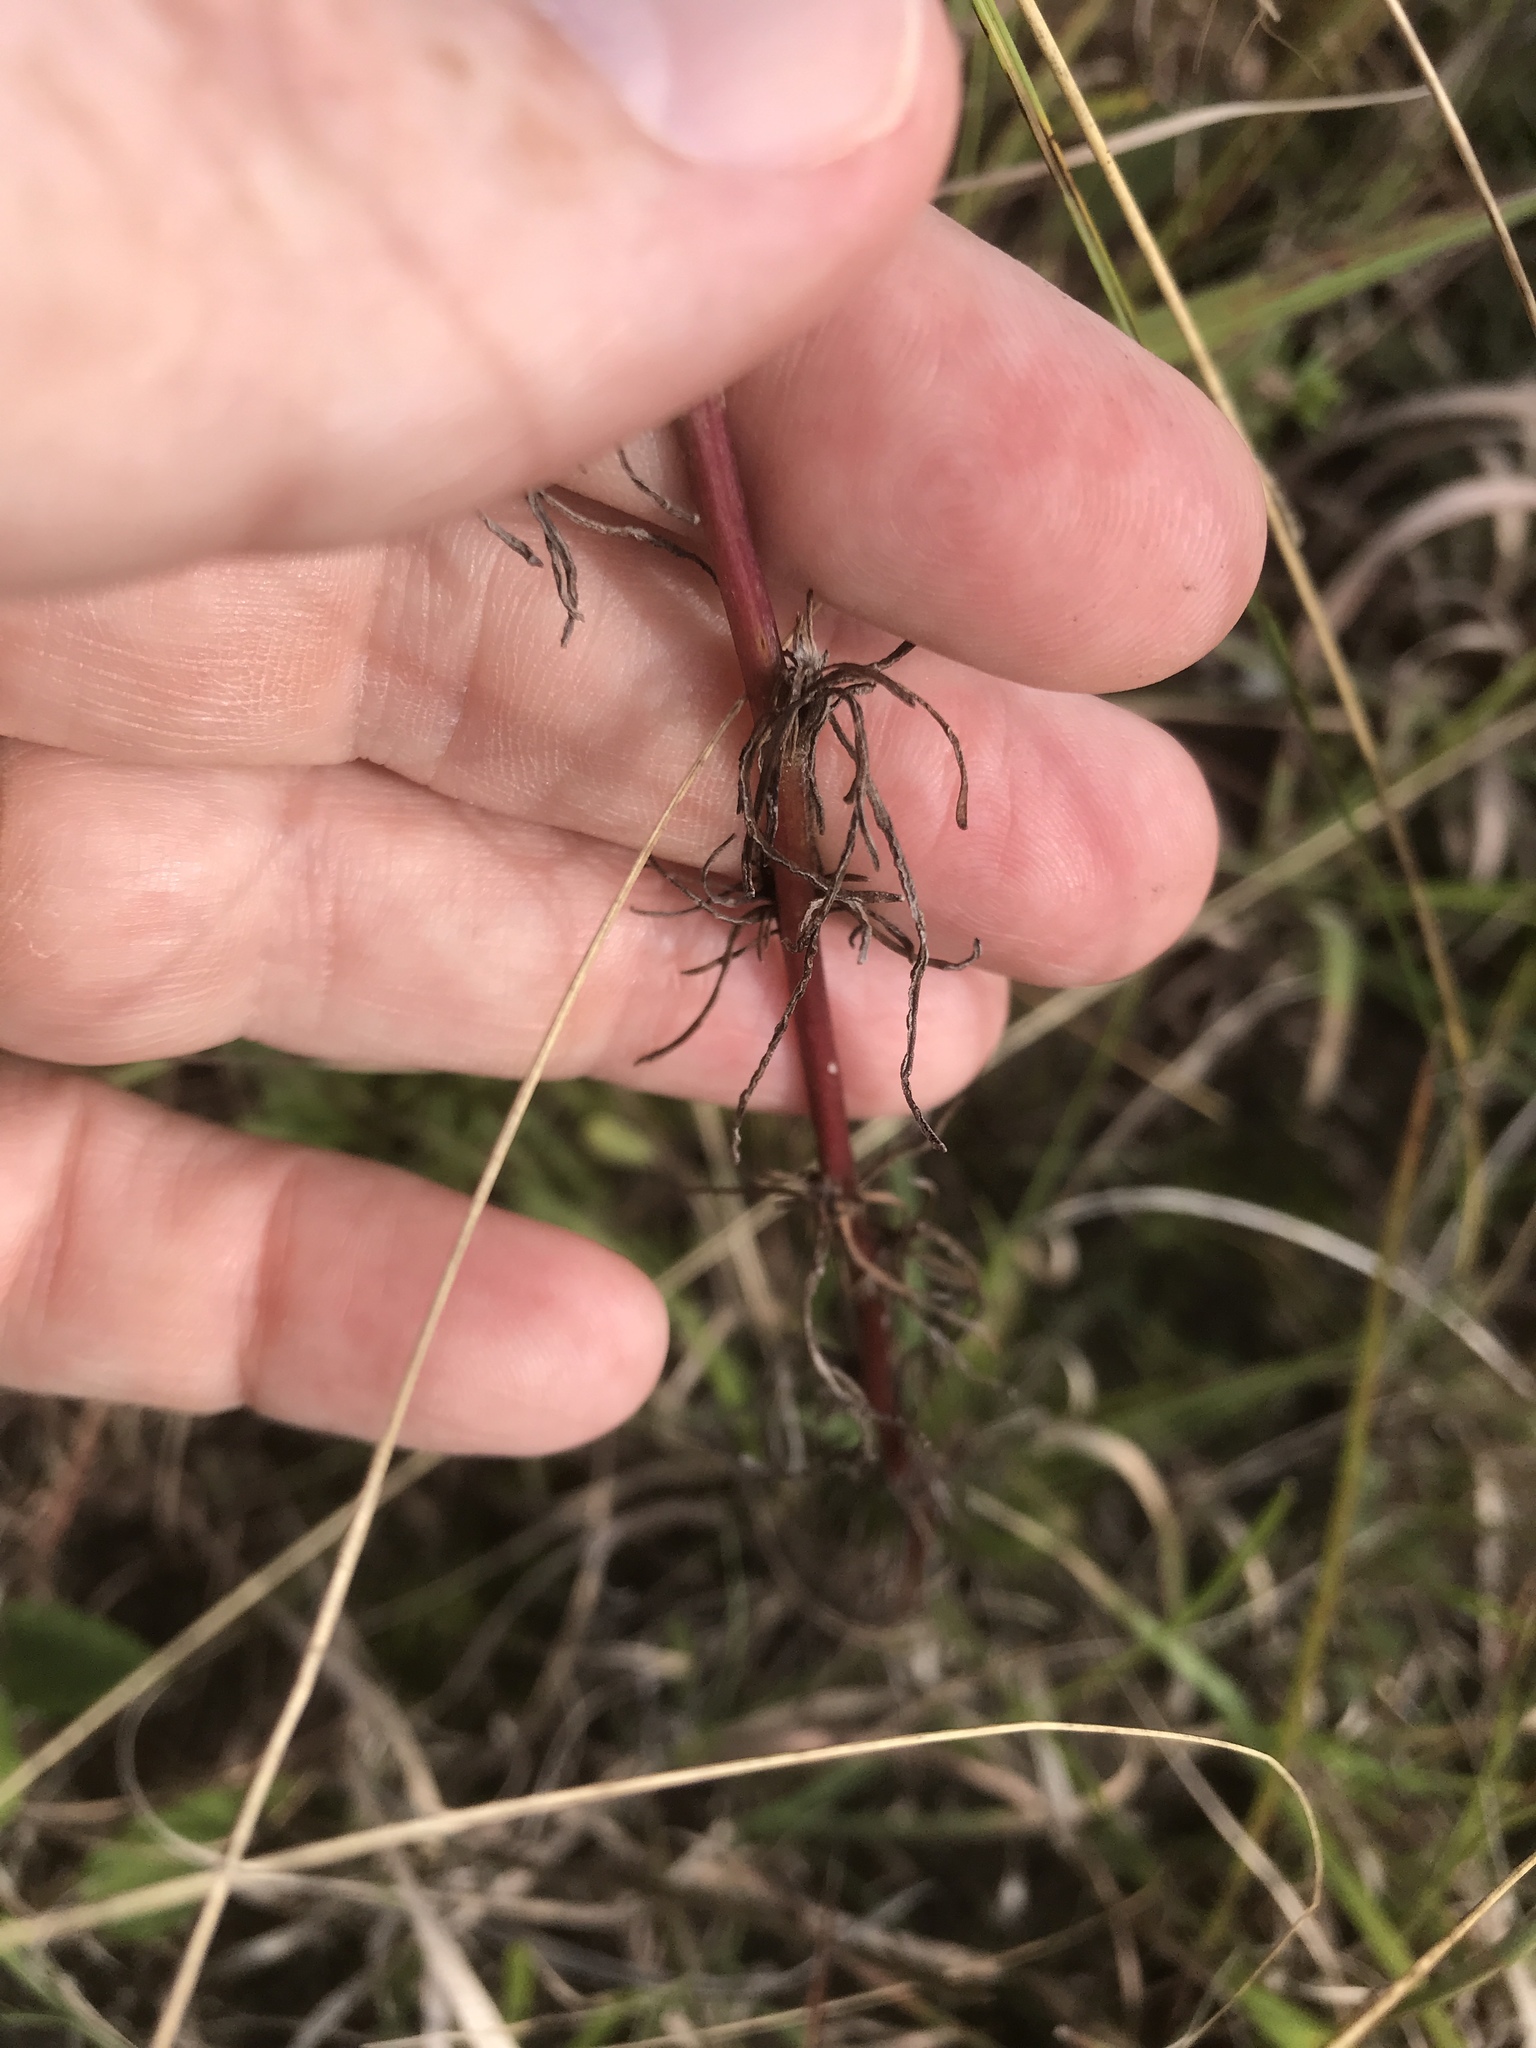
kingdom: Plantae
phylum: Tracheophyta
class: Magnoliopsida
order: Asterales
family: Asteraceae
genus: Artemisia
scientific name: Artemisia campestris
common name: Field wormwood
